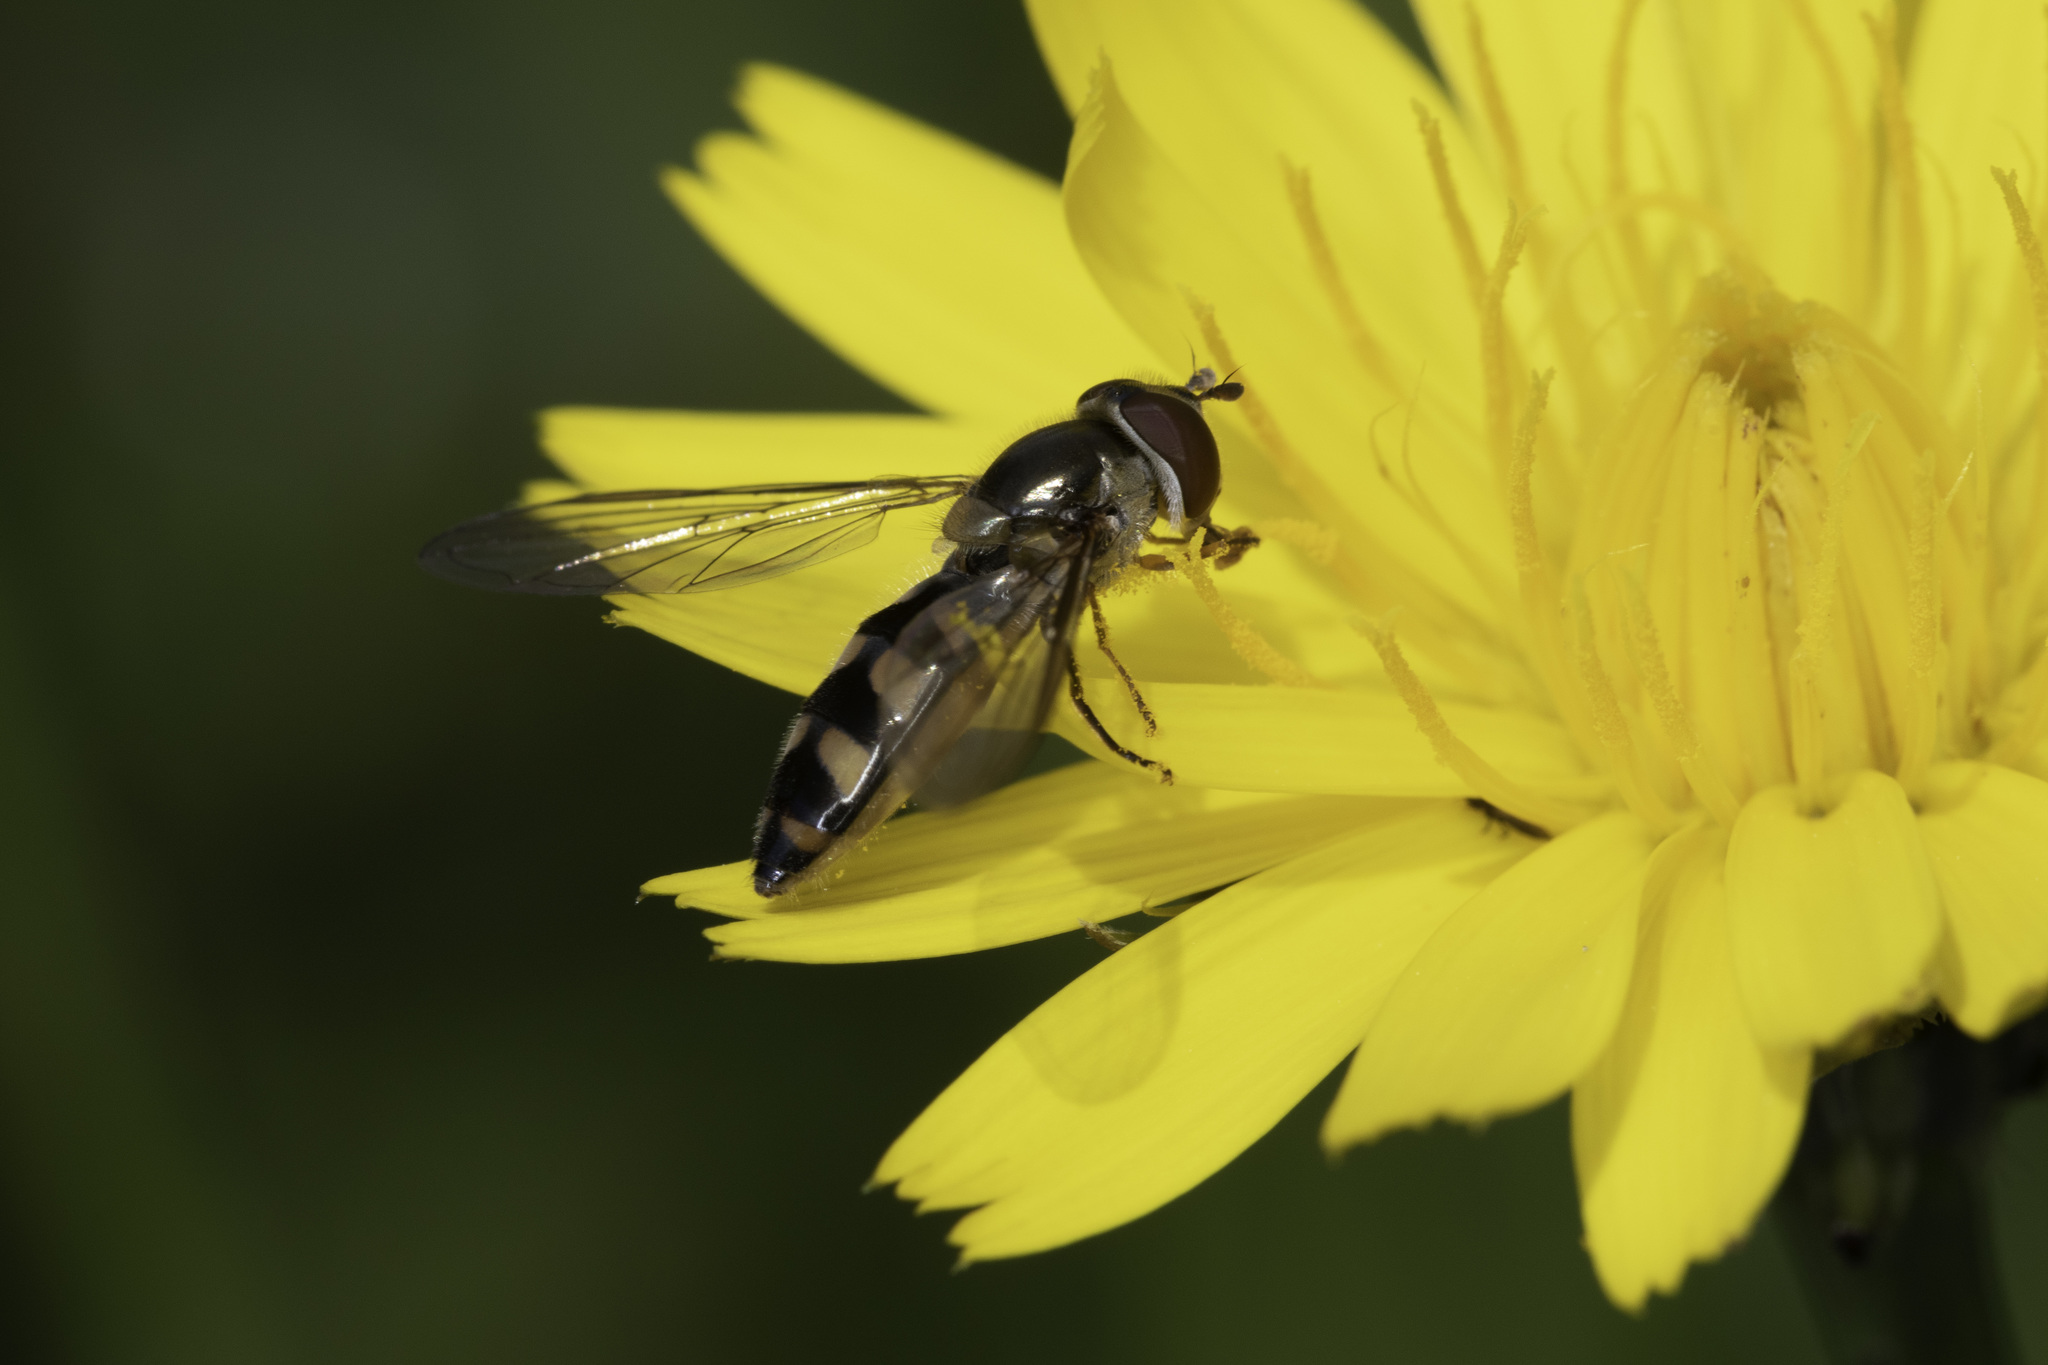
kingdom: Animalia
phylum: Arthropoda
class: Insecta
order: Diptera
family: Syrphidae
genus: Meliscaeva
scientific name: Meliscaeva auricollis
